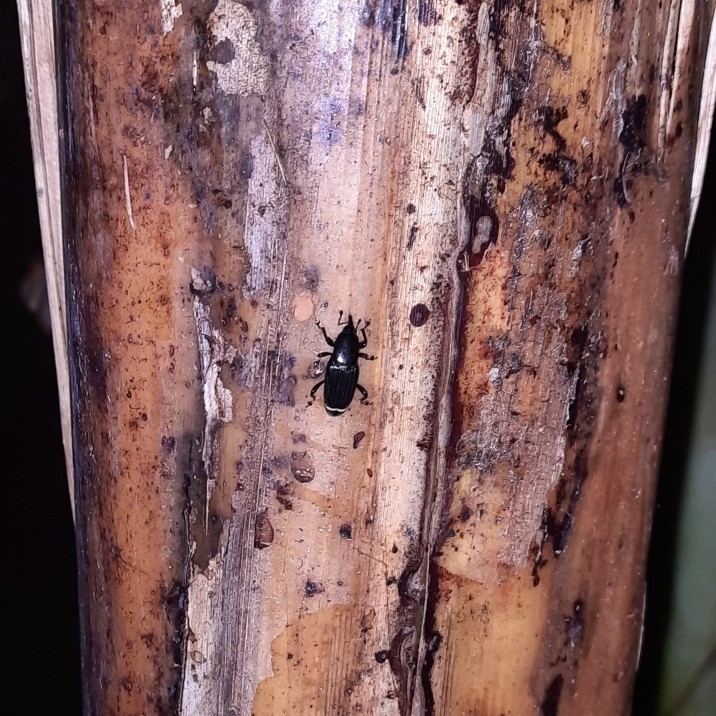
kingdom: Animalia
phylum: Arthropoda
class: Insecta
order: Coleoptera
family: Dryophthoridae
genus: Odoiporus
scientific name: Odoiporus longicollis
